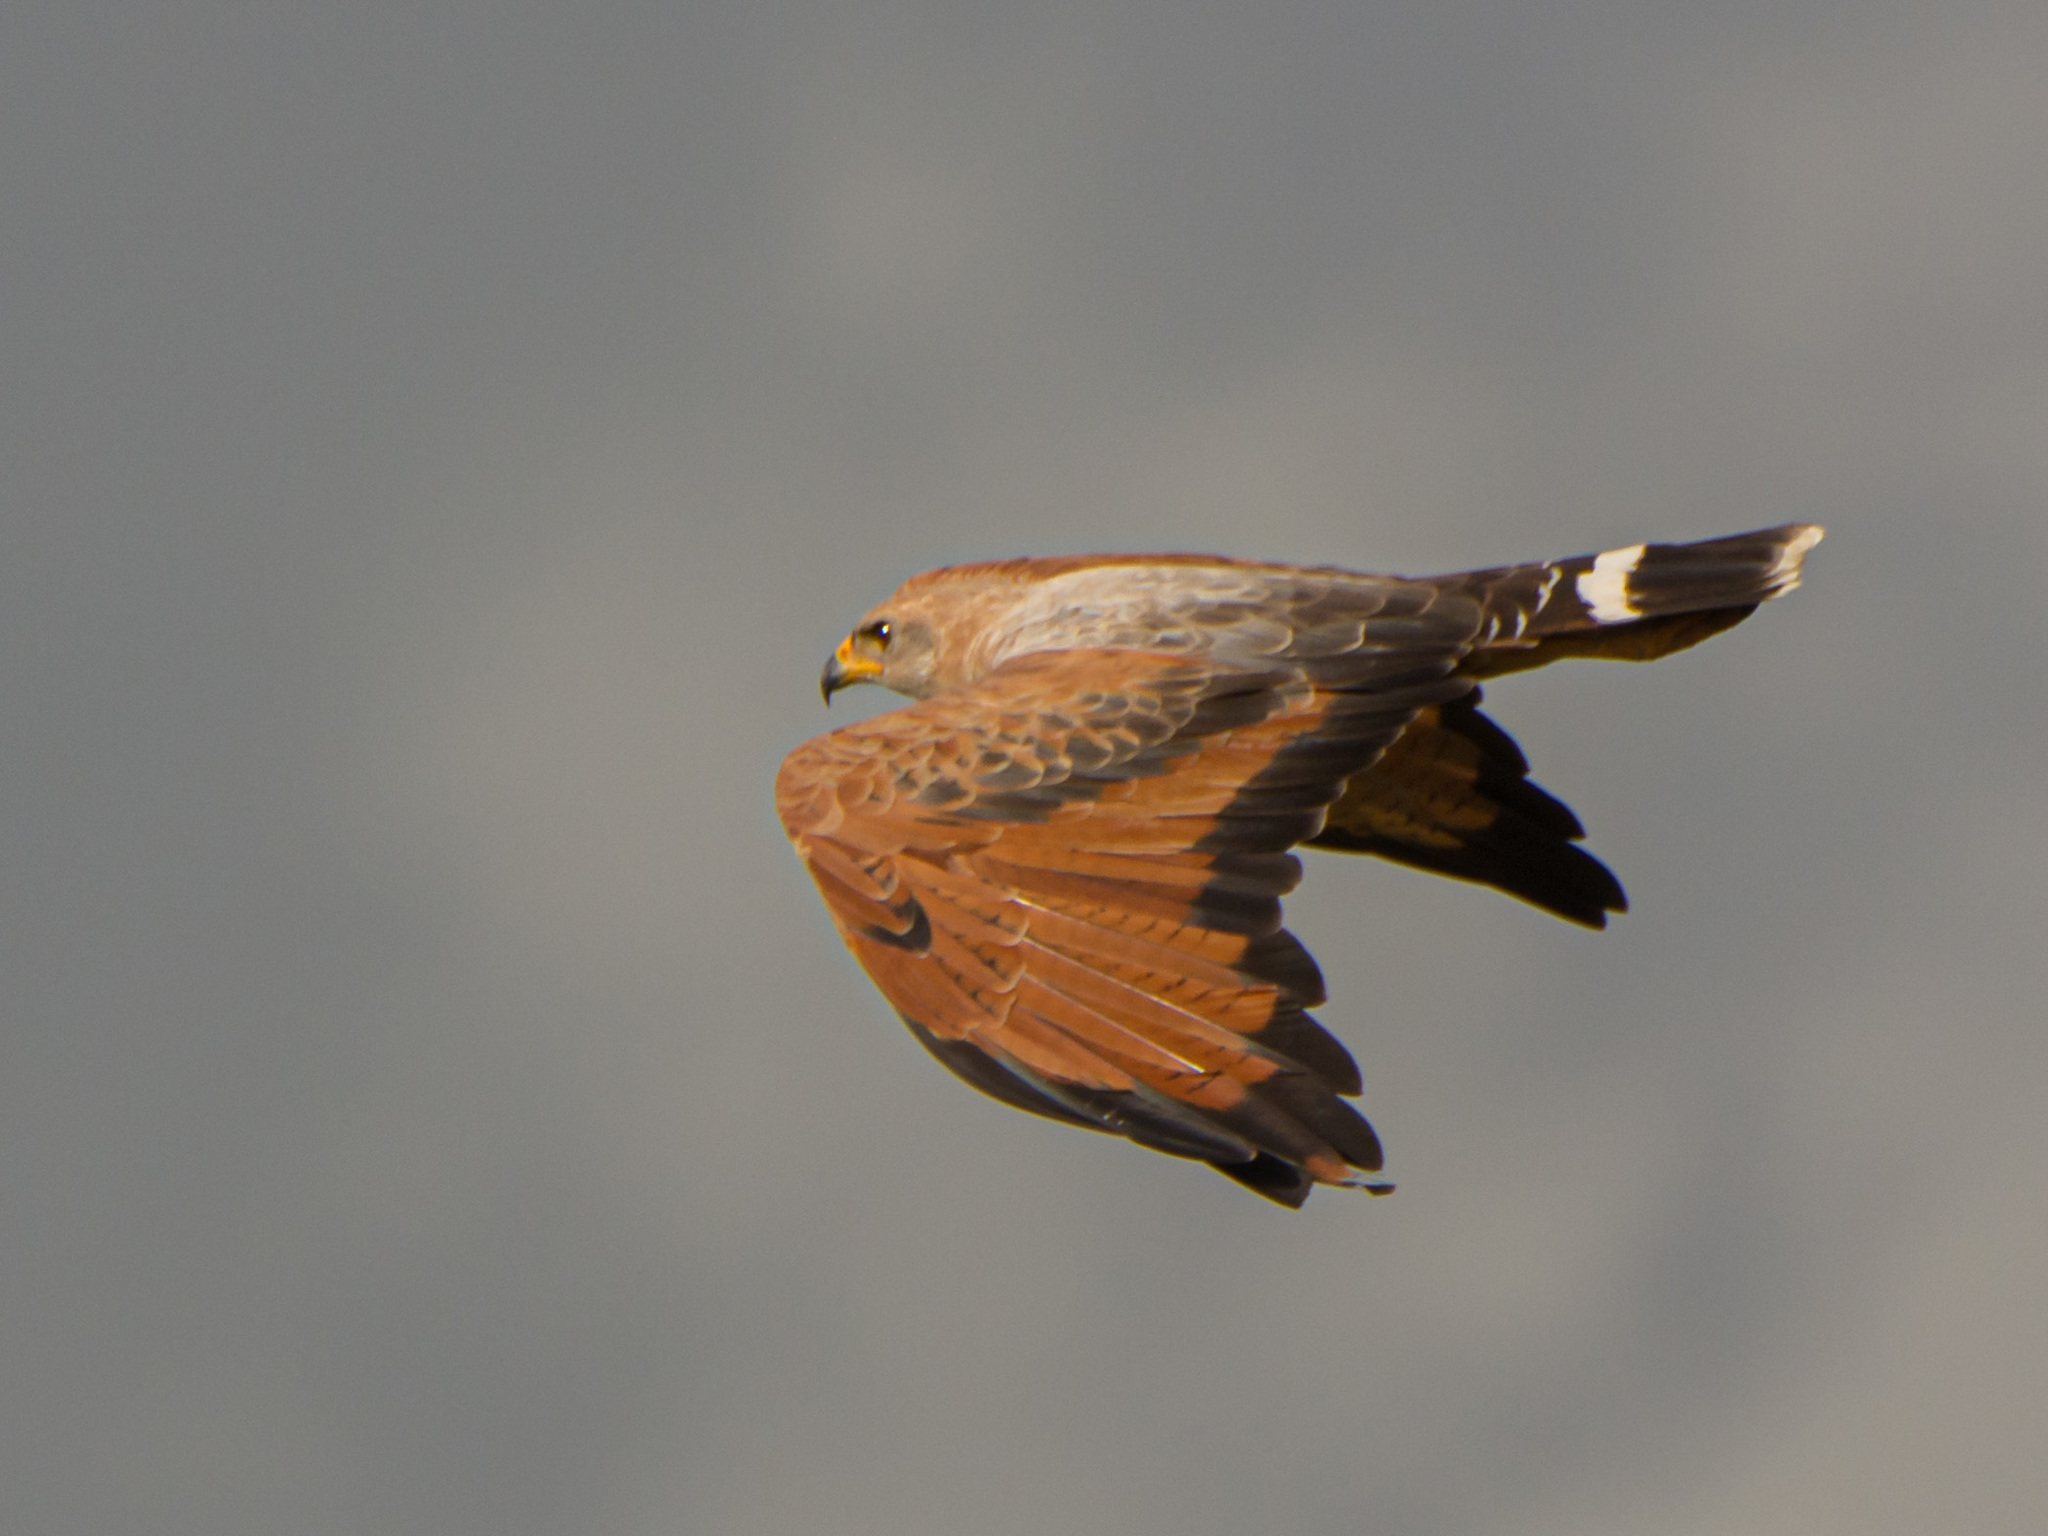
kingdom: Animalia
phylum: Chordata
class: Aves
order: Accipitriformes
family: Accipitridae
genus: Buteogallus
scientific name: Buteogallus meridionalis
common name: Savanna hawk
